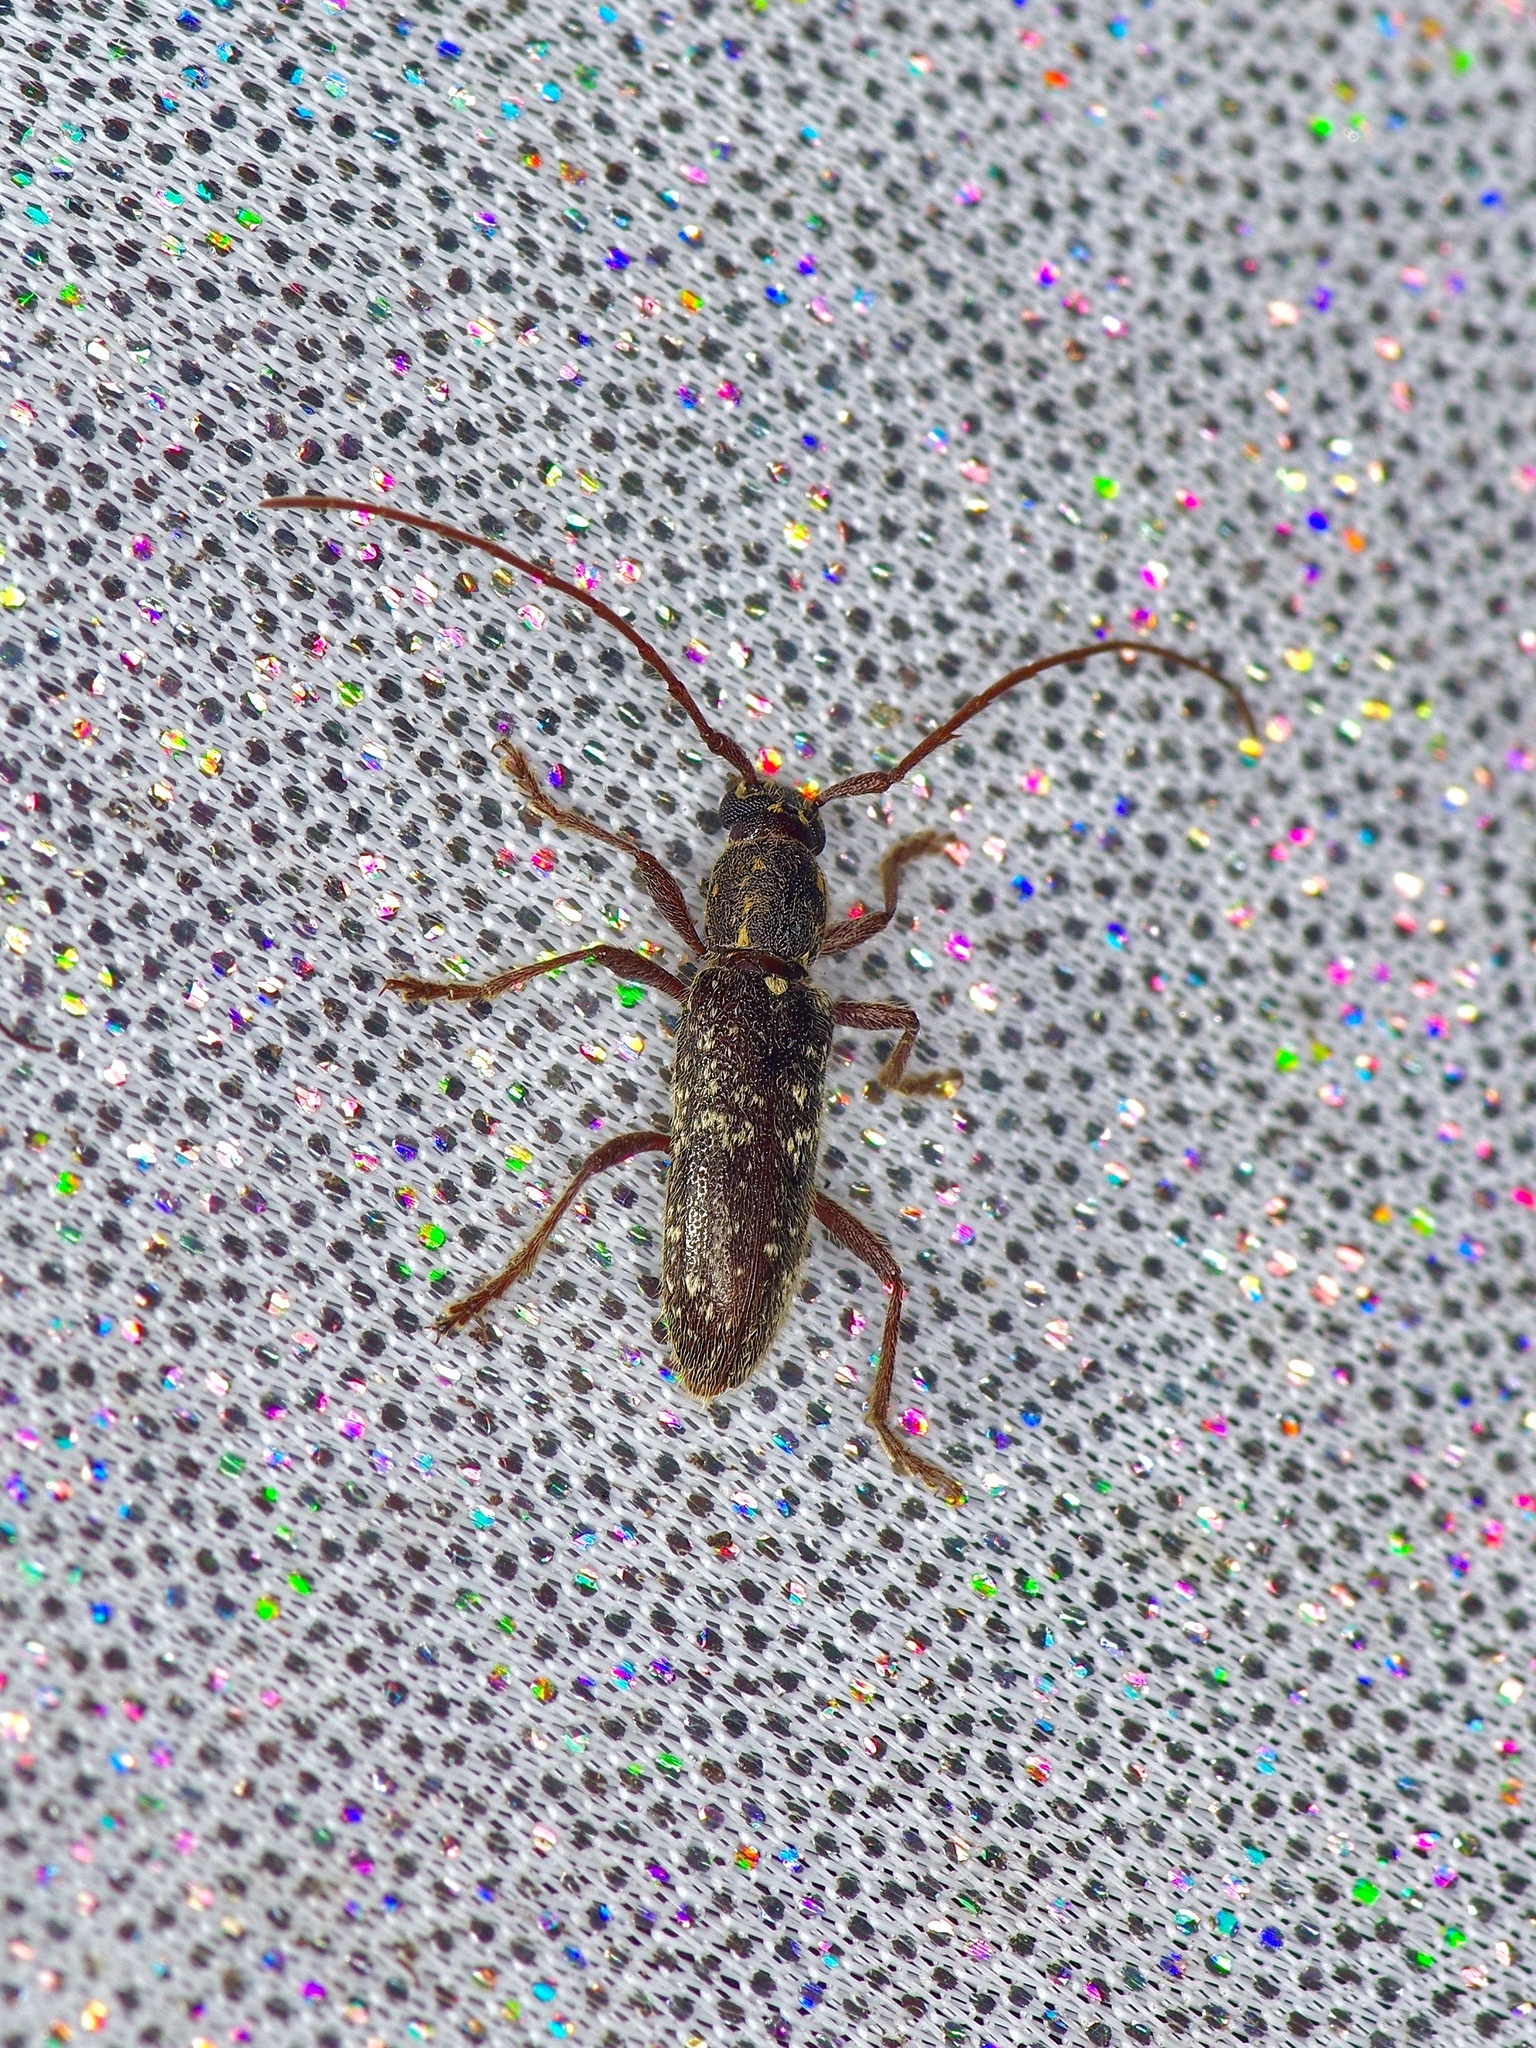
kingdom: Animalia
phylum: Arthropoda
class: Insecta
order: Coleoptera
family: Cerambycidae
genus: Anelaphus
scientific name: Anelaphus niveivestitus
